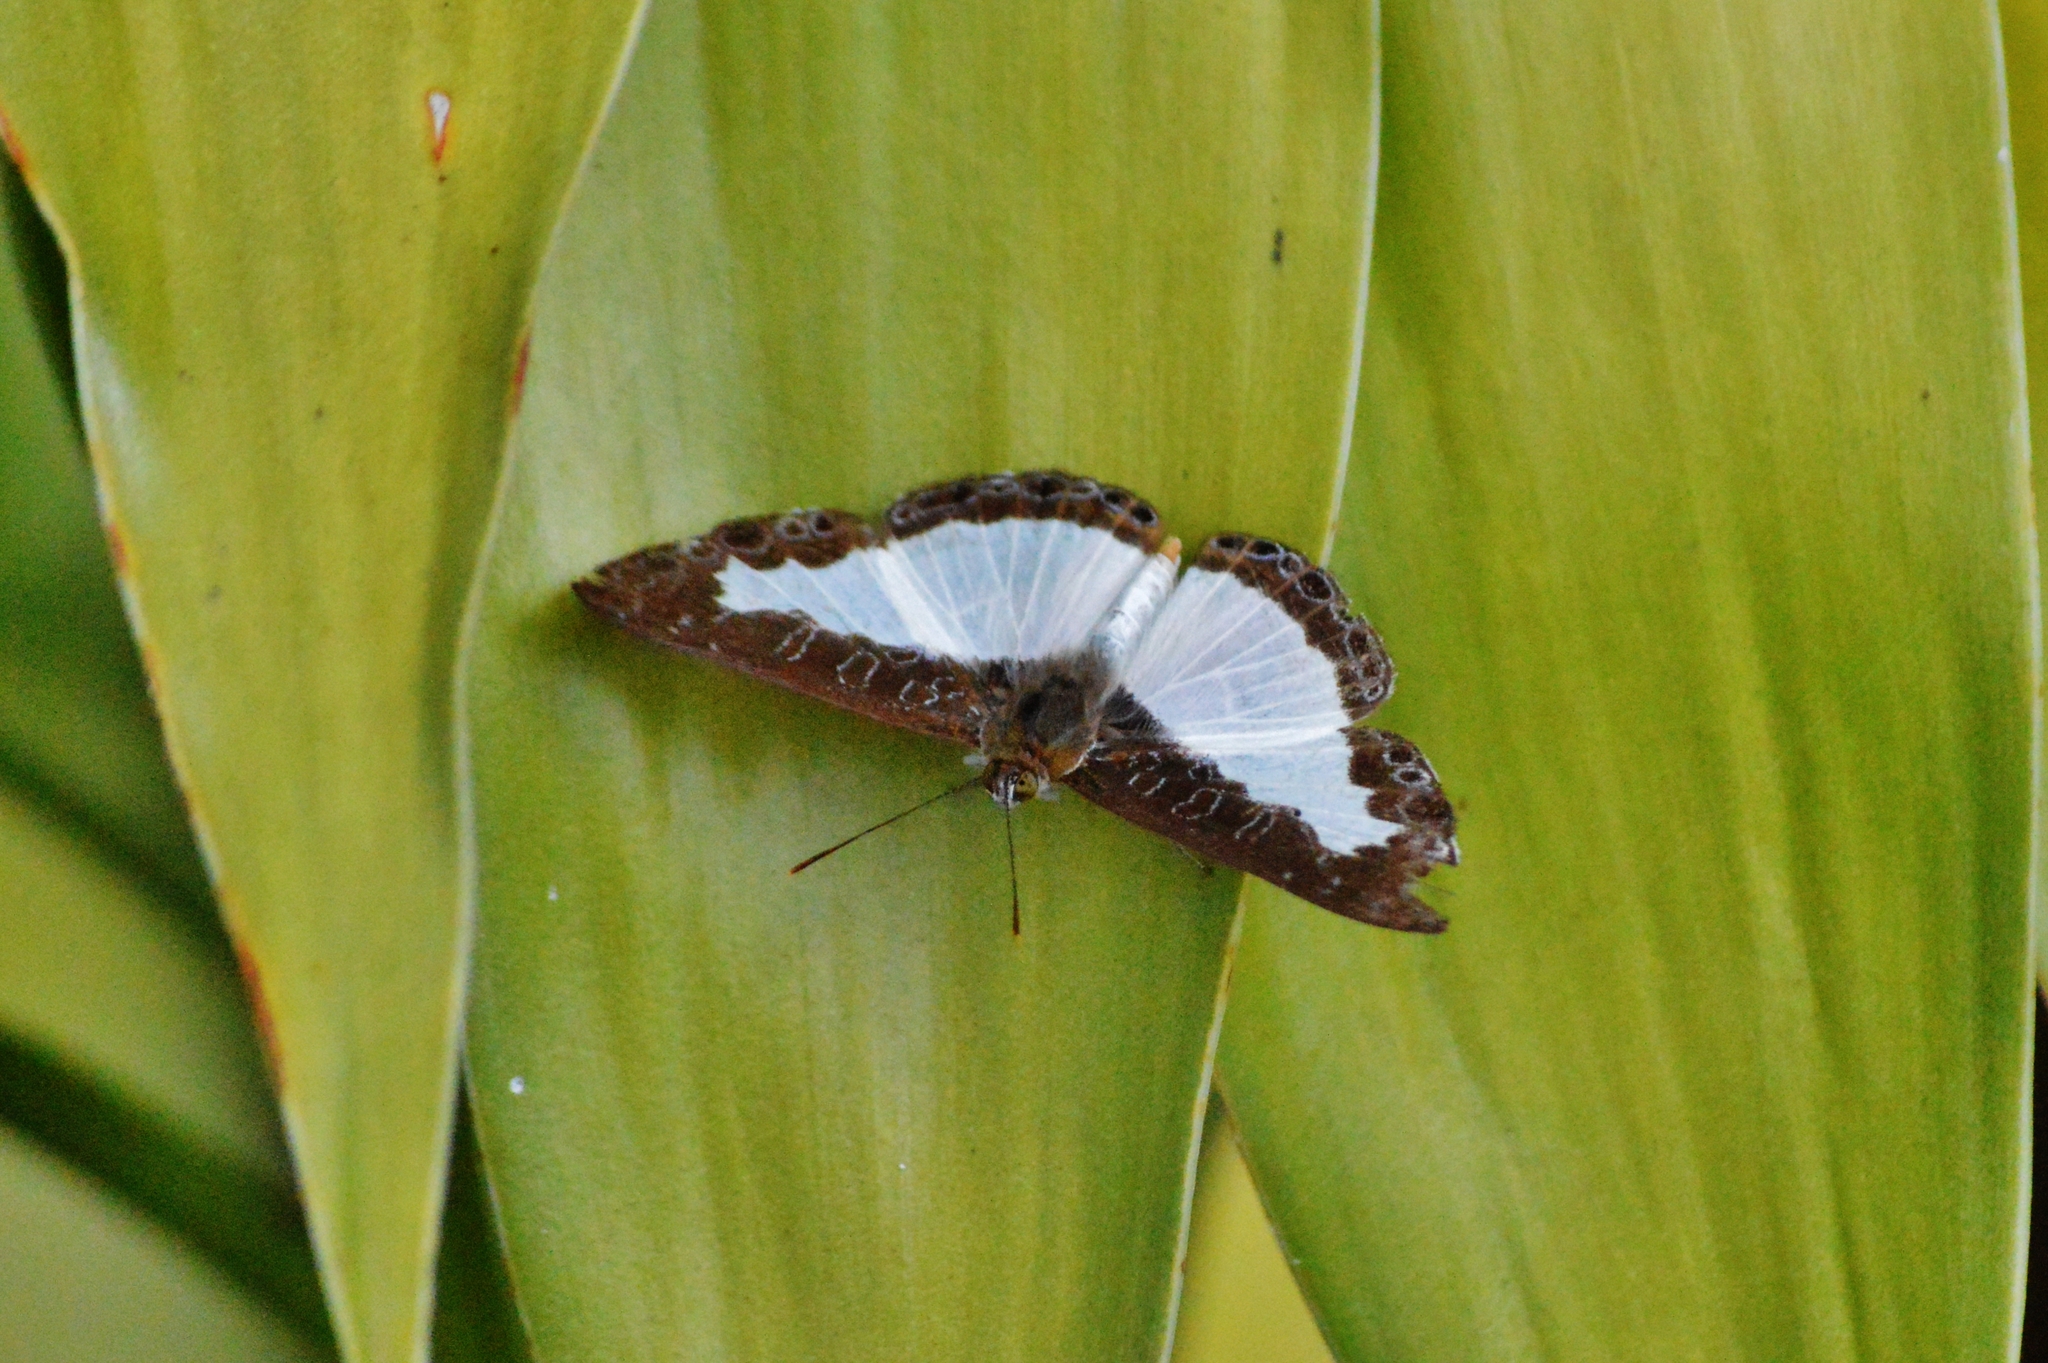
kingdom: Animalia
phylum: Arthropoda
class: Insecta
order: Lepidoptera
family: Riodinidae
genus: Calociasma
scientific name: Calociasma lilina
